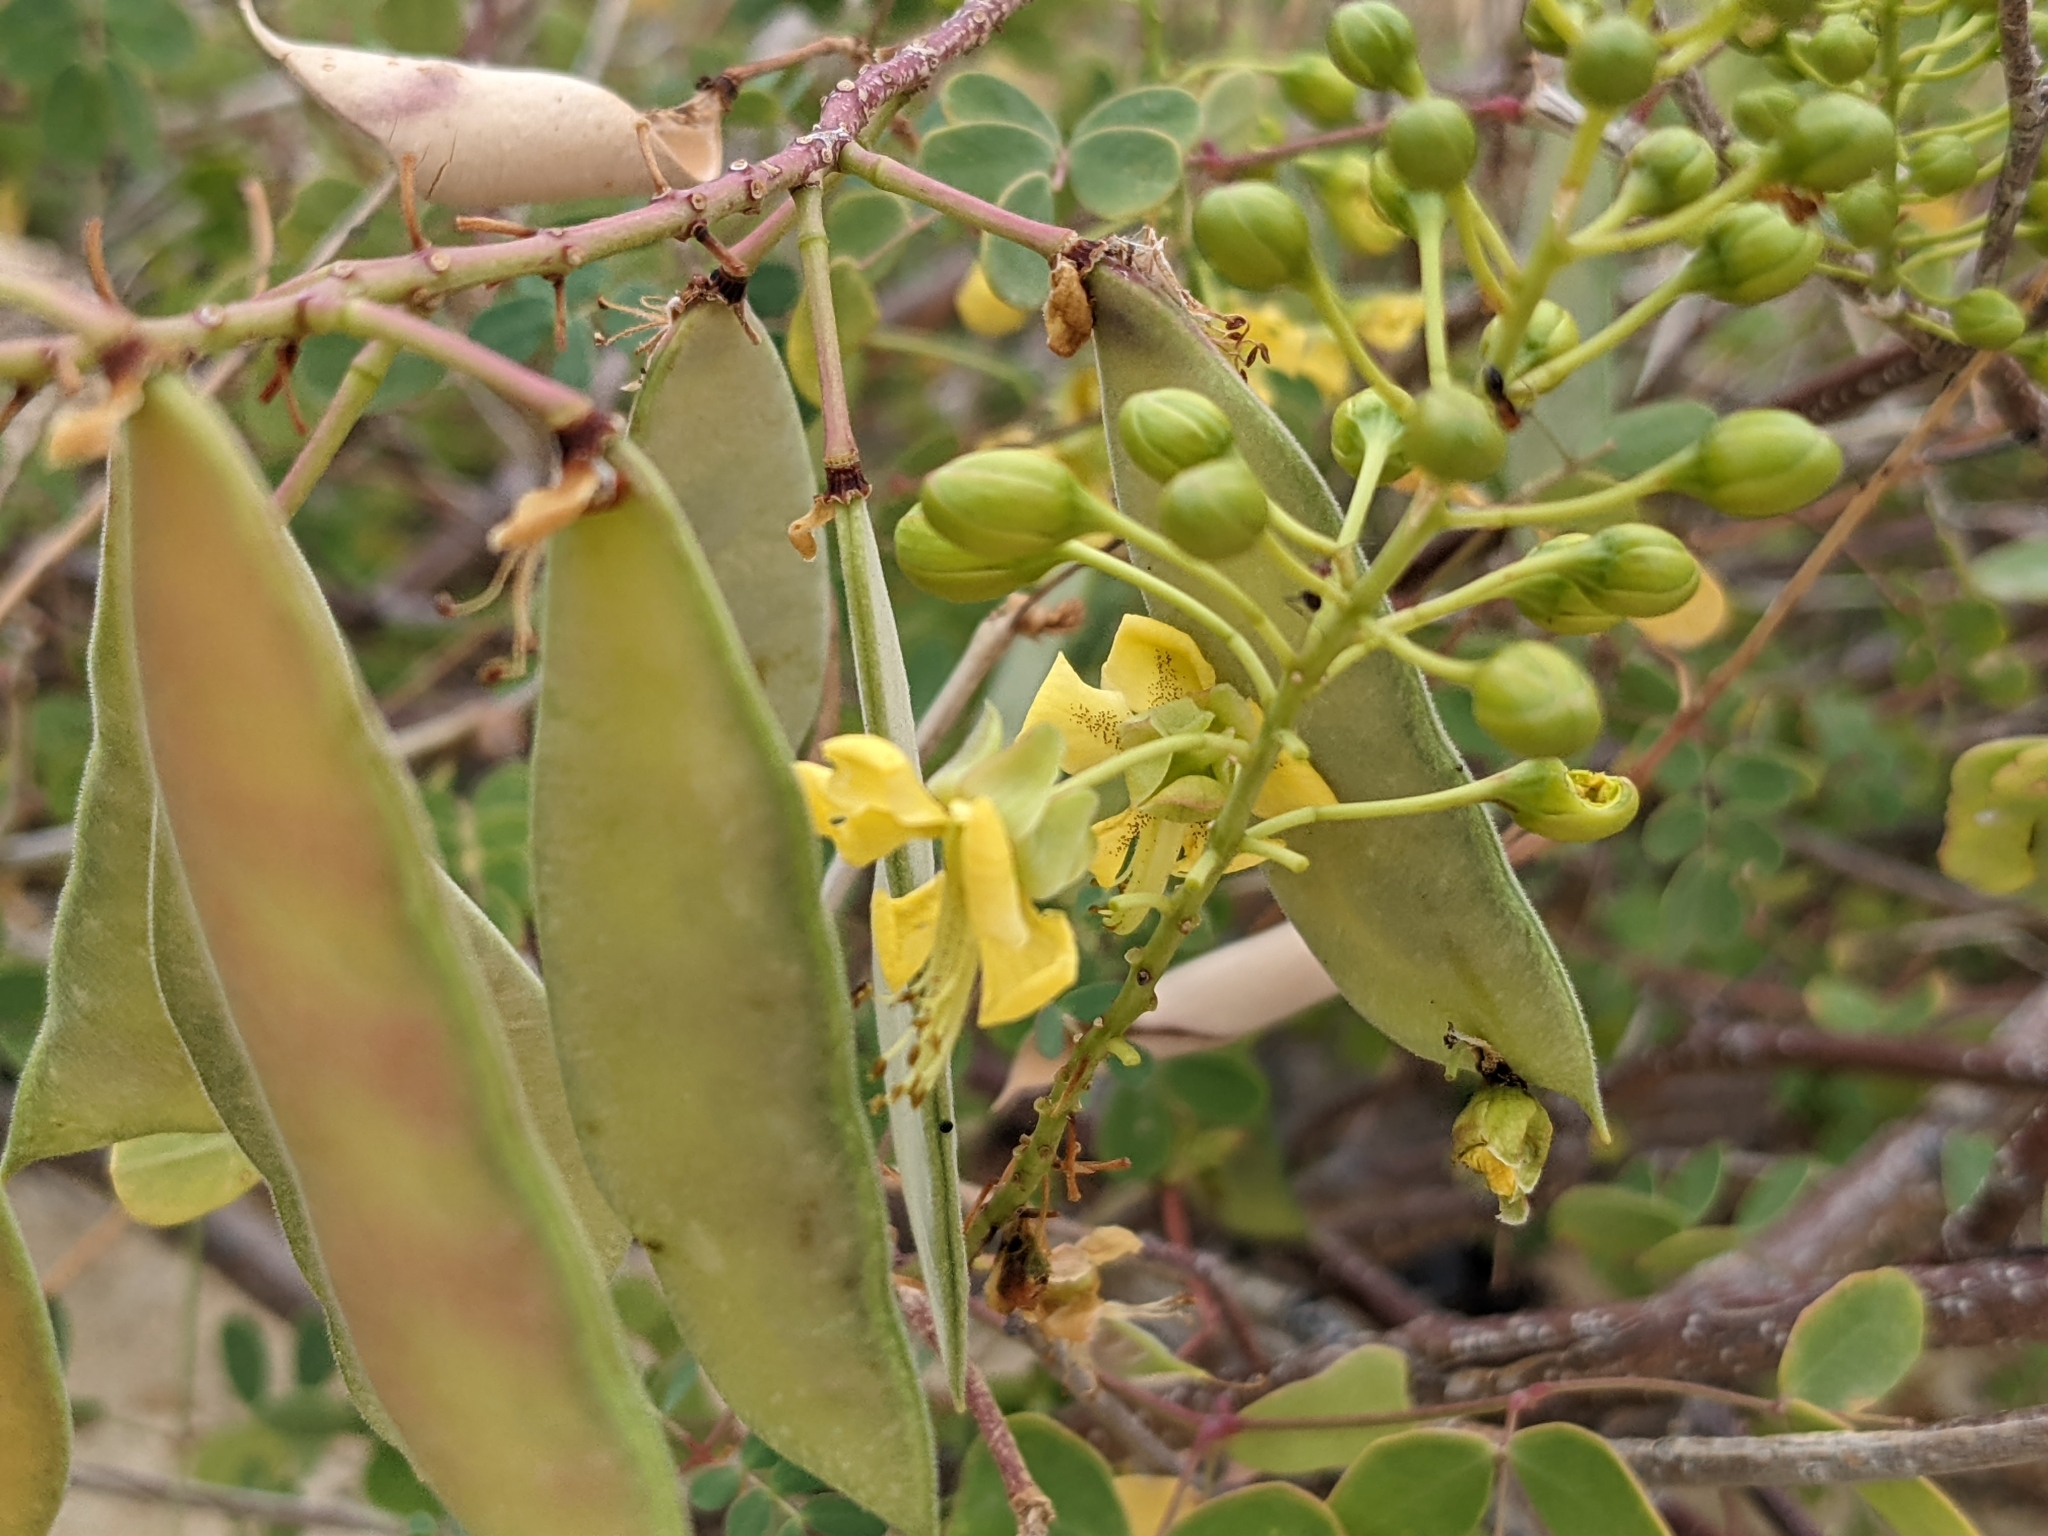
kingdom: Plantae
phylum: Tracheophyta
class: Magnoliopsida
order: Fabales
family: Fabaceae
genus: Erythrostemon
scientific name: Erythrostemon pannosus
